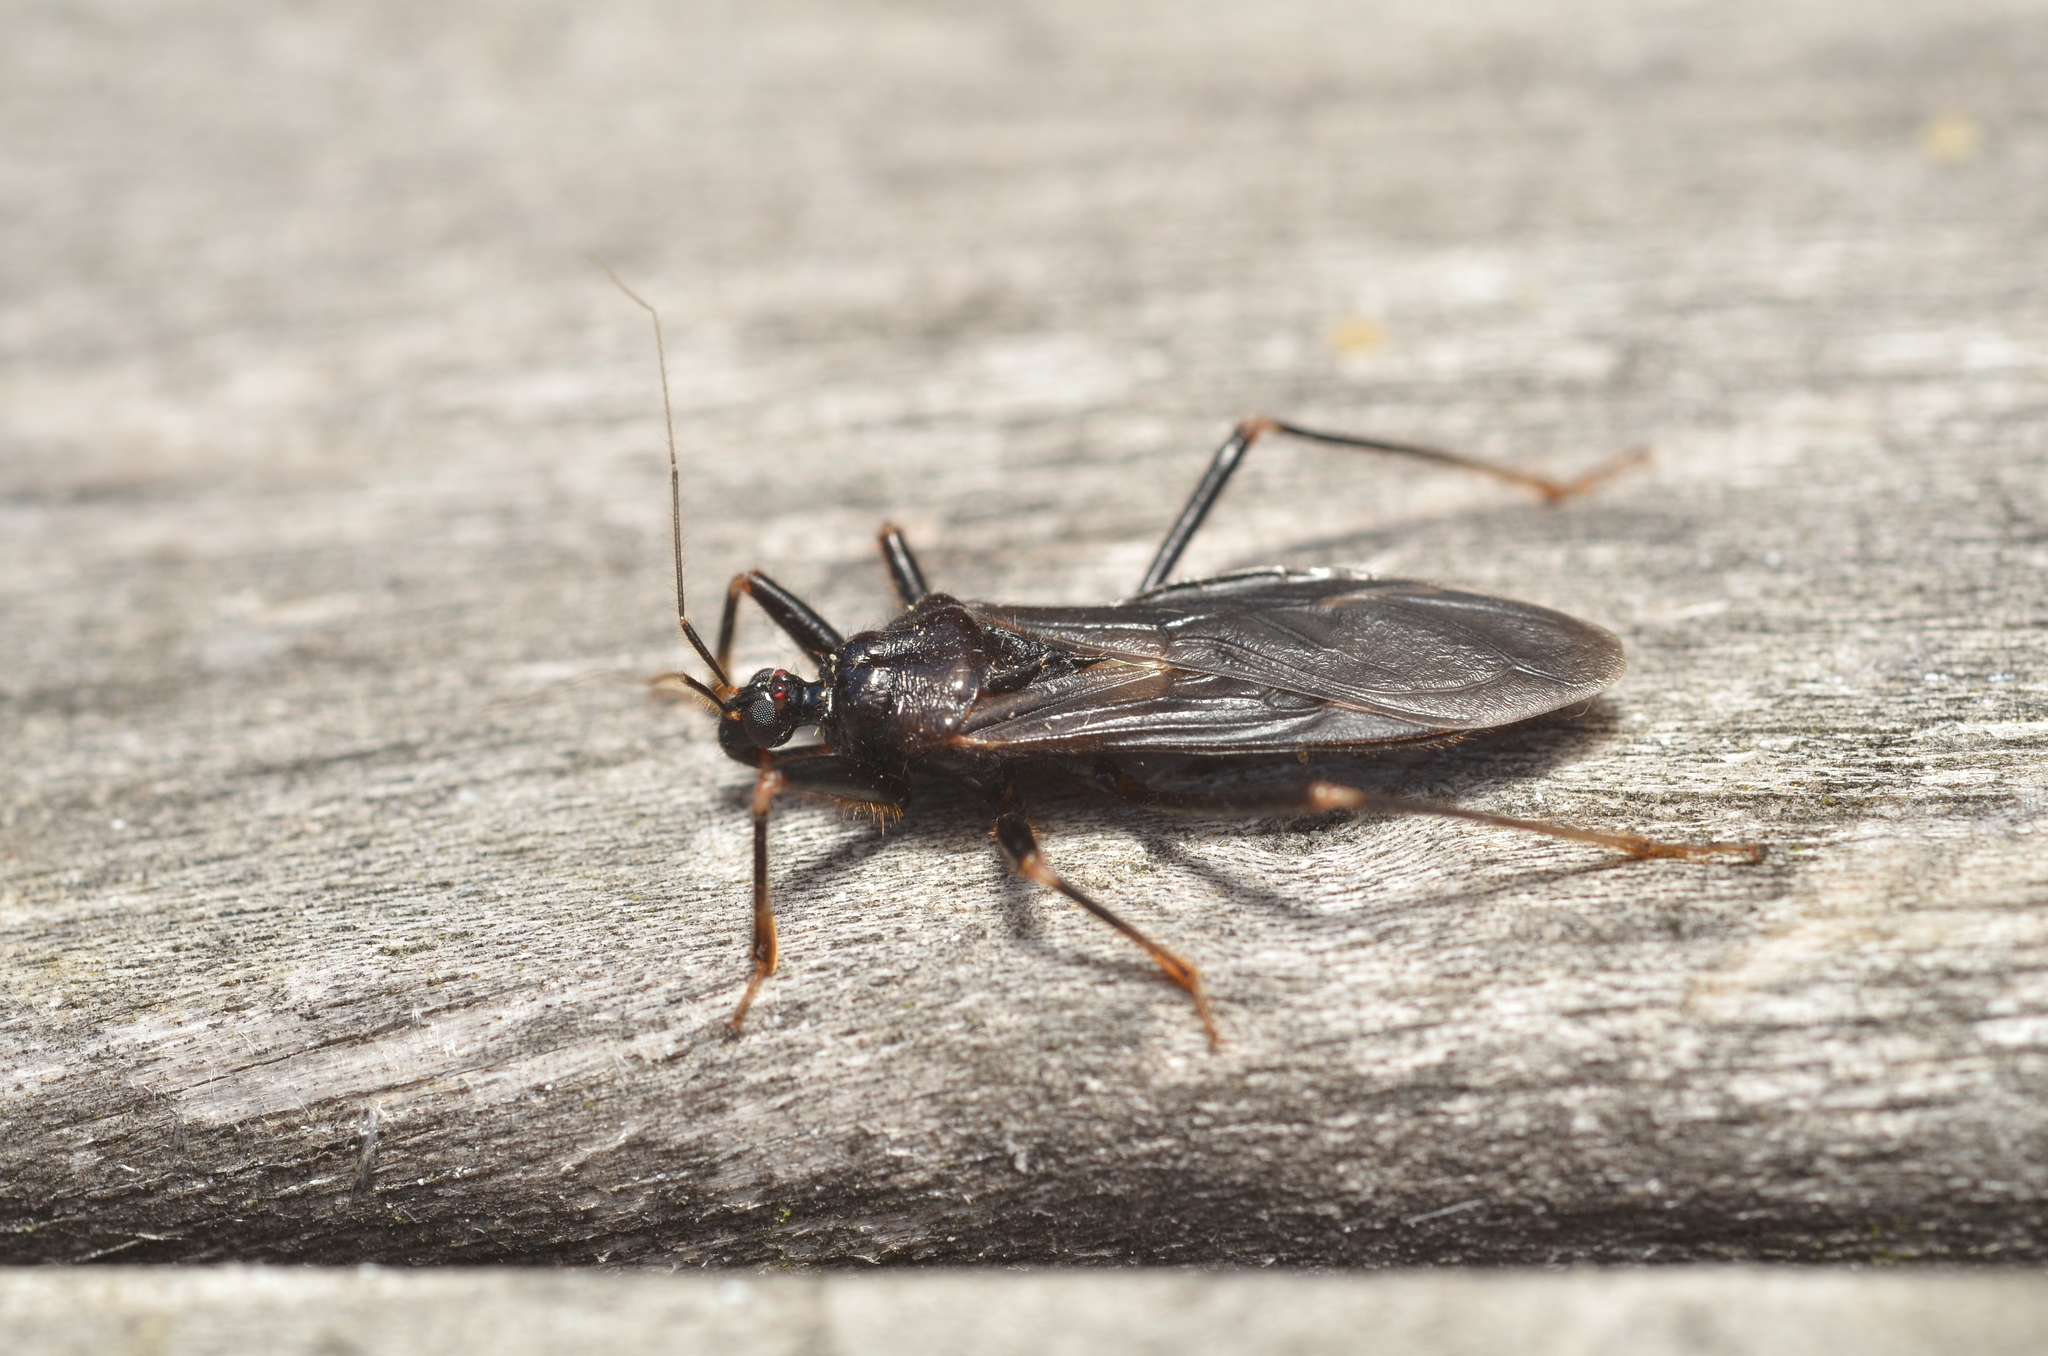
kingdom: Animalia
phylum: Arthropoda
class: Insecta
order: Hemiptera
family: Reduviidae
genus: Reduvius
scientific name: Reduvius personatus
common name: Masked hunter
